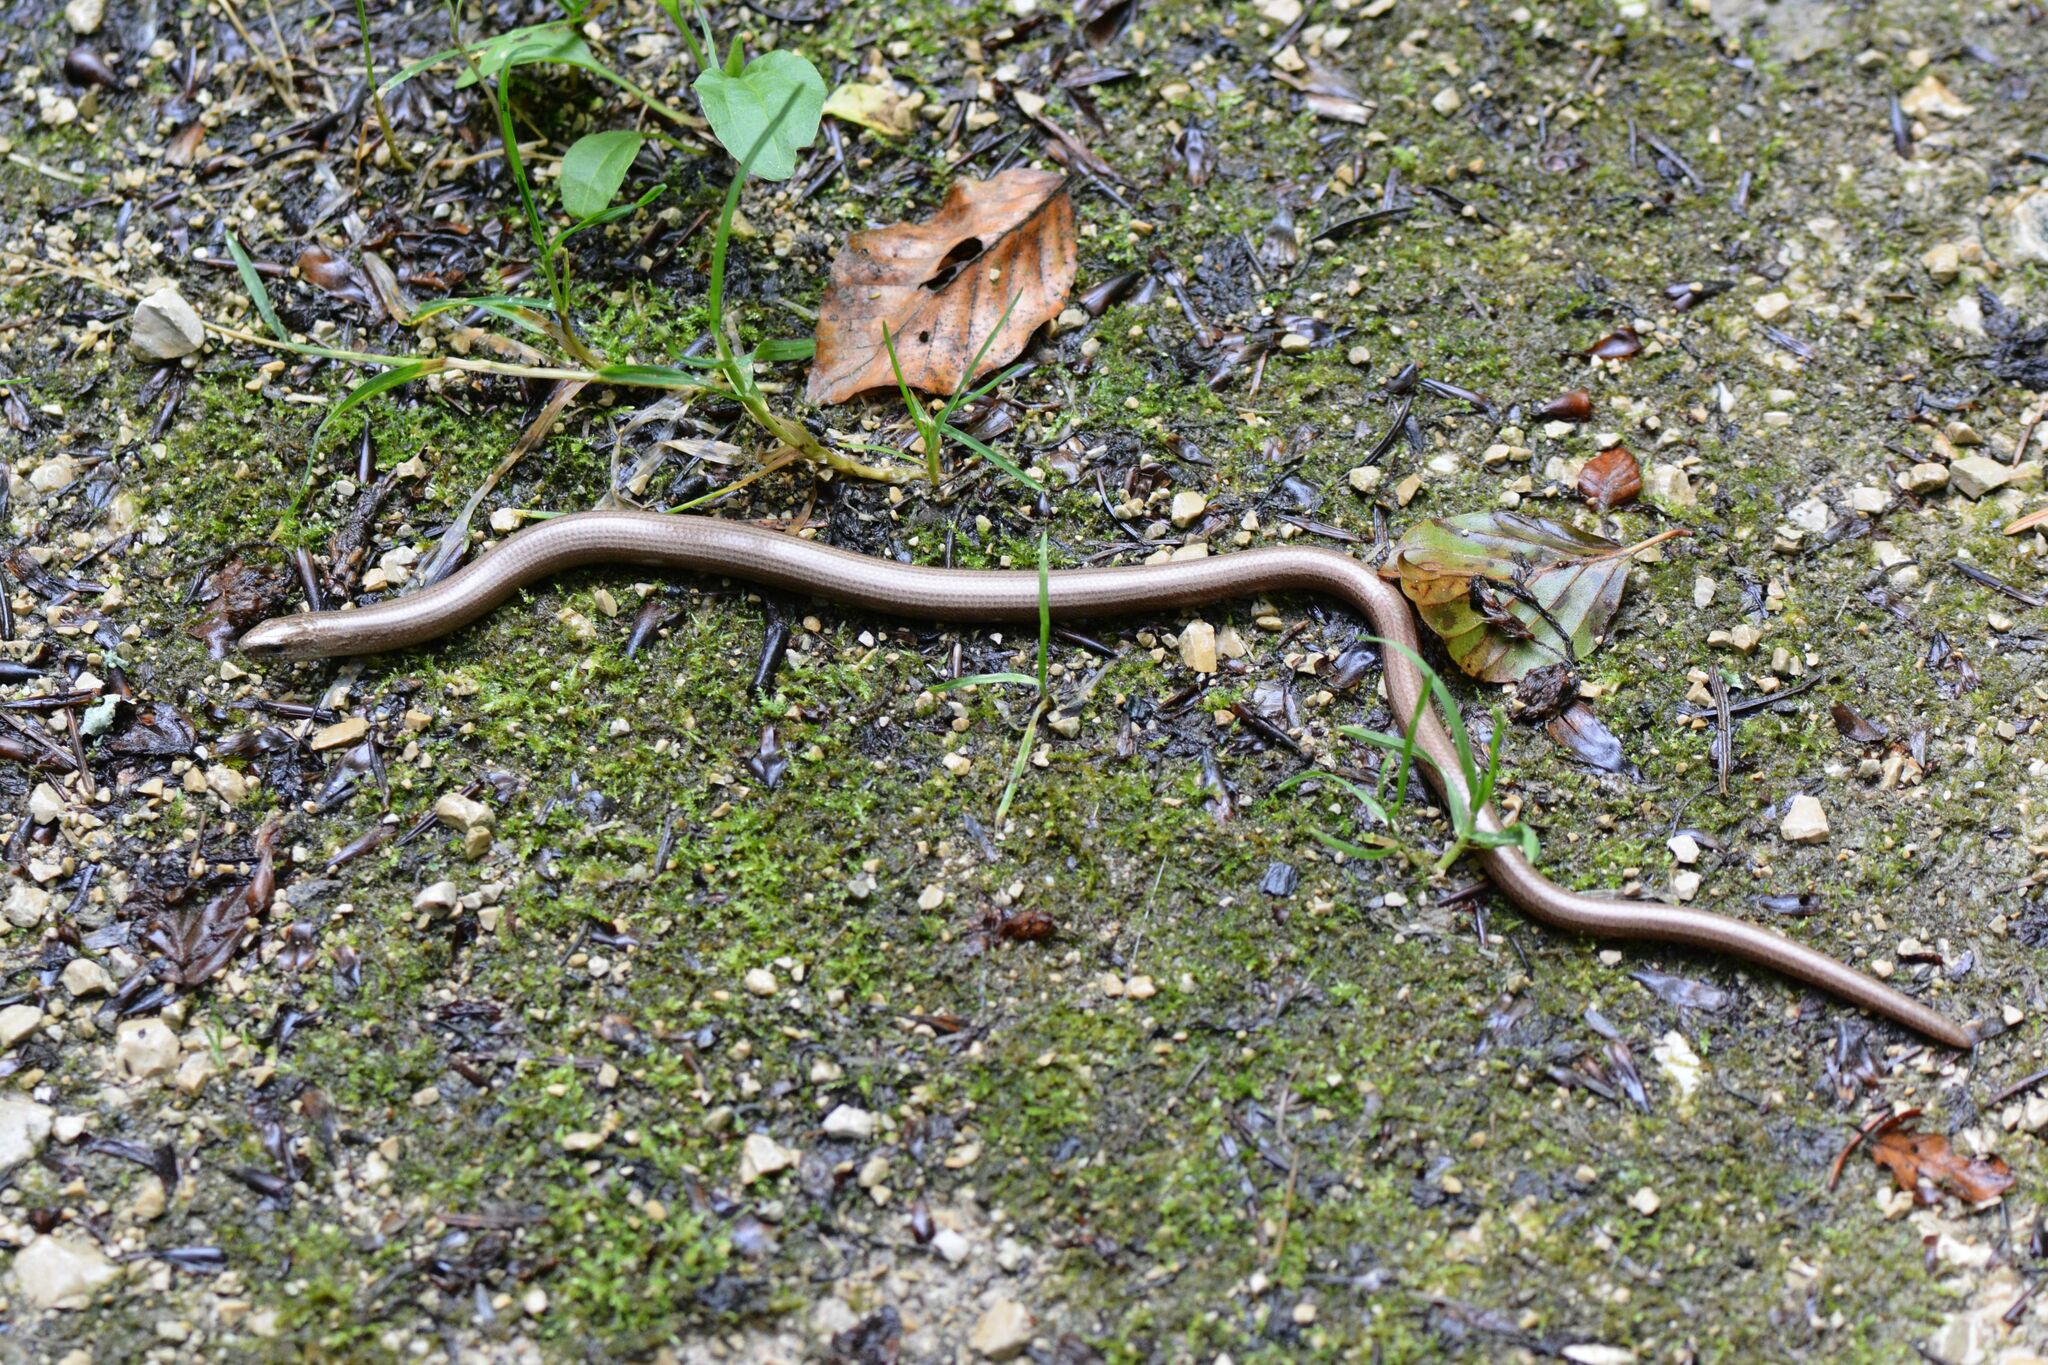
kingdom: Animalia
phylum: Chordata
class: Squamata
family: Anguidae
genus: Anguis
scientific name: Anguis fragilis
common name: Slow worm
